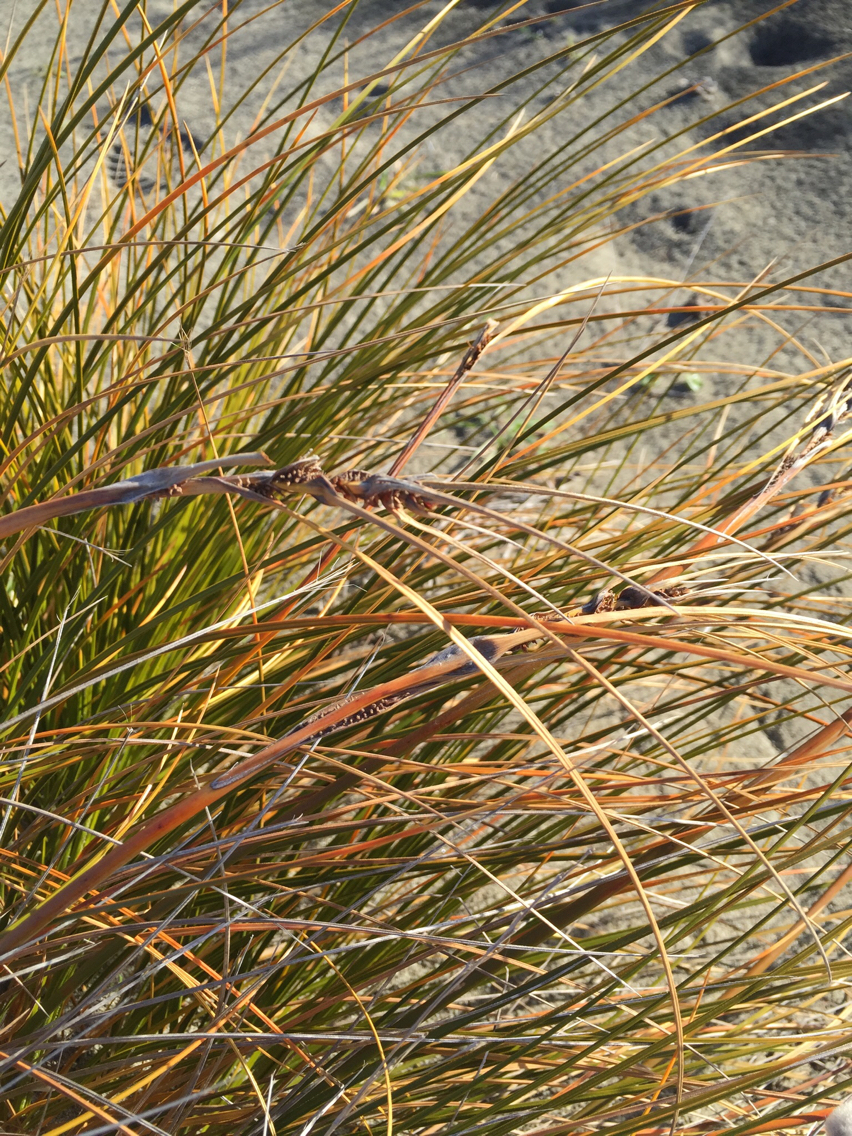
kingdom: Plantae
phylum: Tracheophyta
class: Liliopsida
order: Poales
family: Cyperaceae
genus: Ficinia
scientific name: Ficinia spiralis
